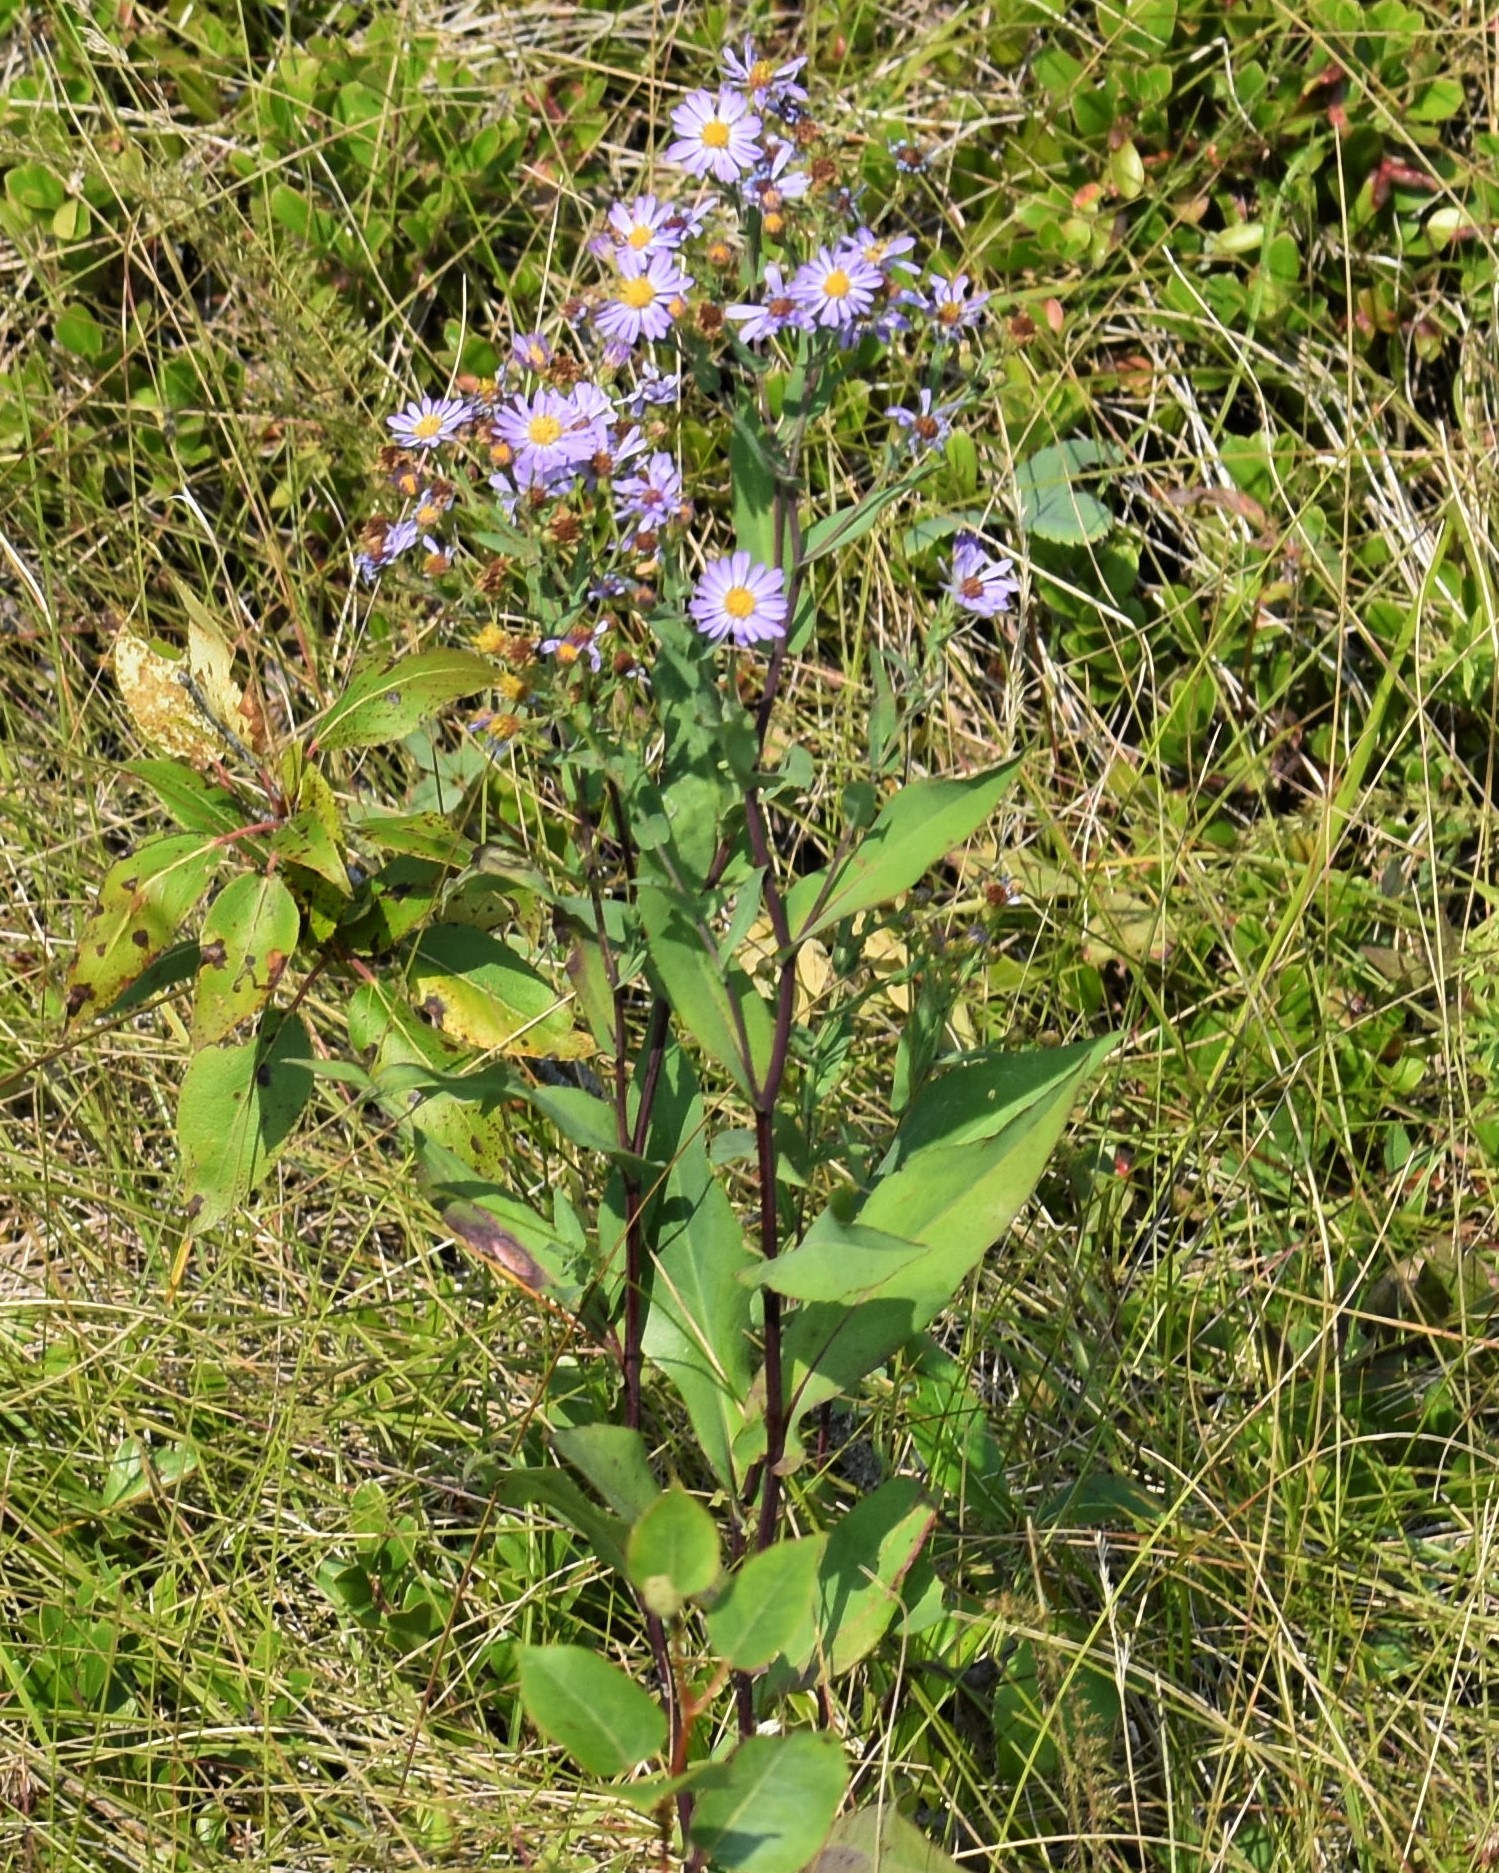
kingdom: Plantae
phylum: Tracheophyta
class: Magnoliopsida
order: Asterales
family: Asteraceae
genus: Symphyotrichum
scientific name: Symphyotrichum laeve
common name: Glaucous aster
